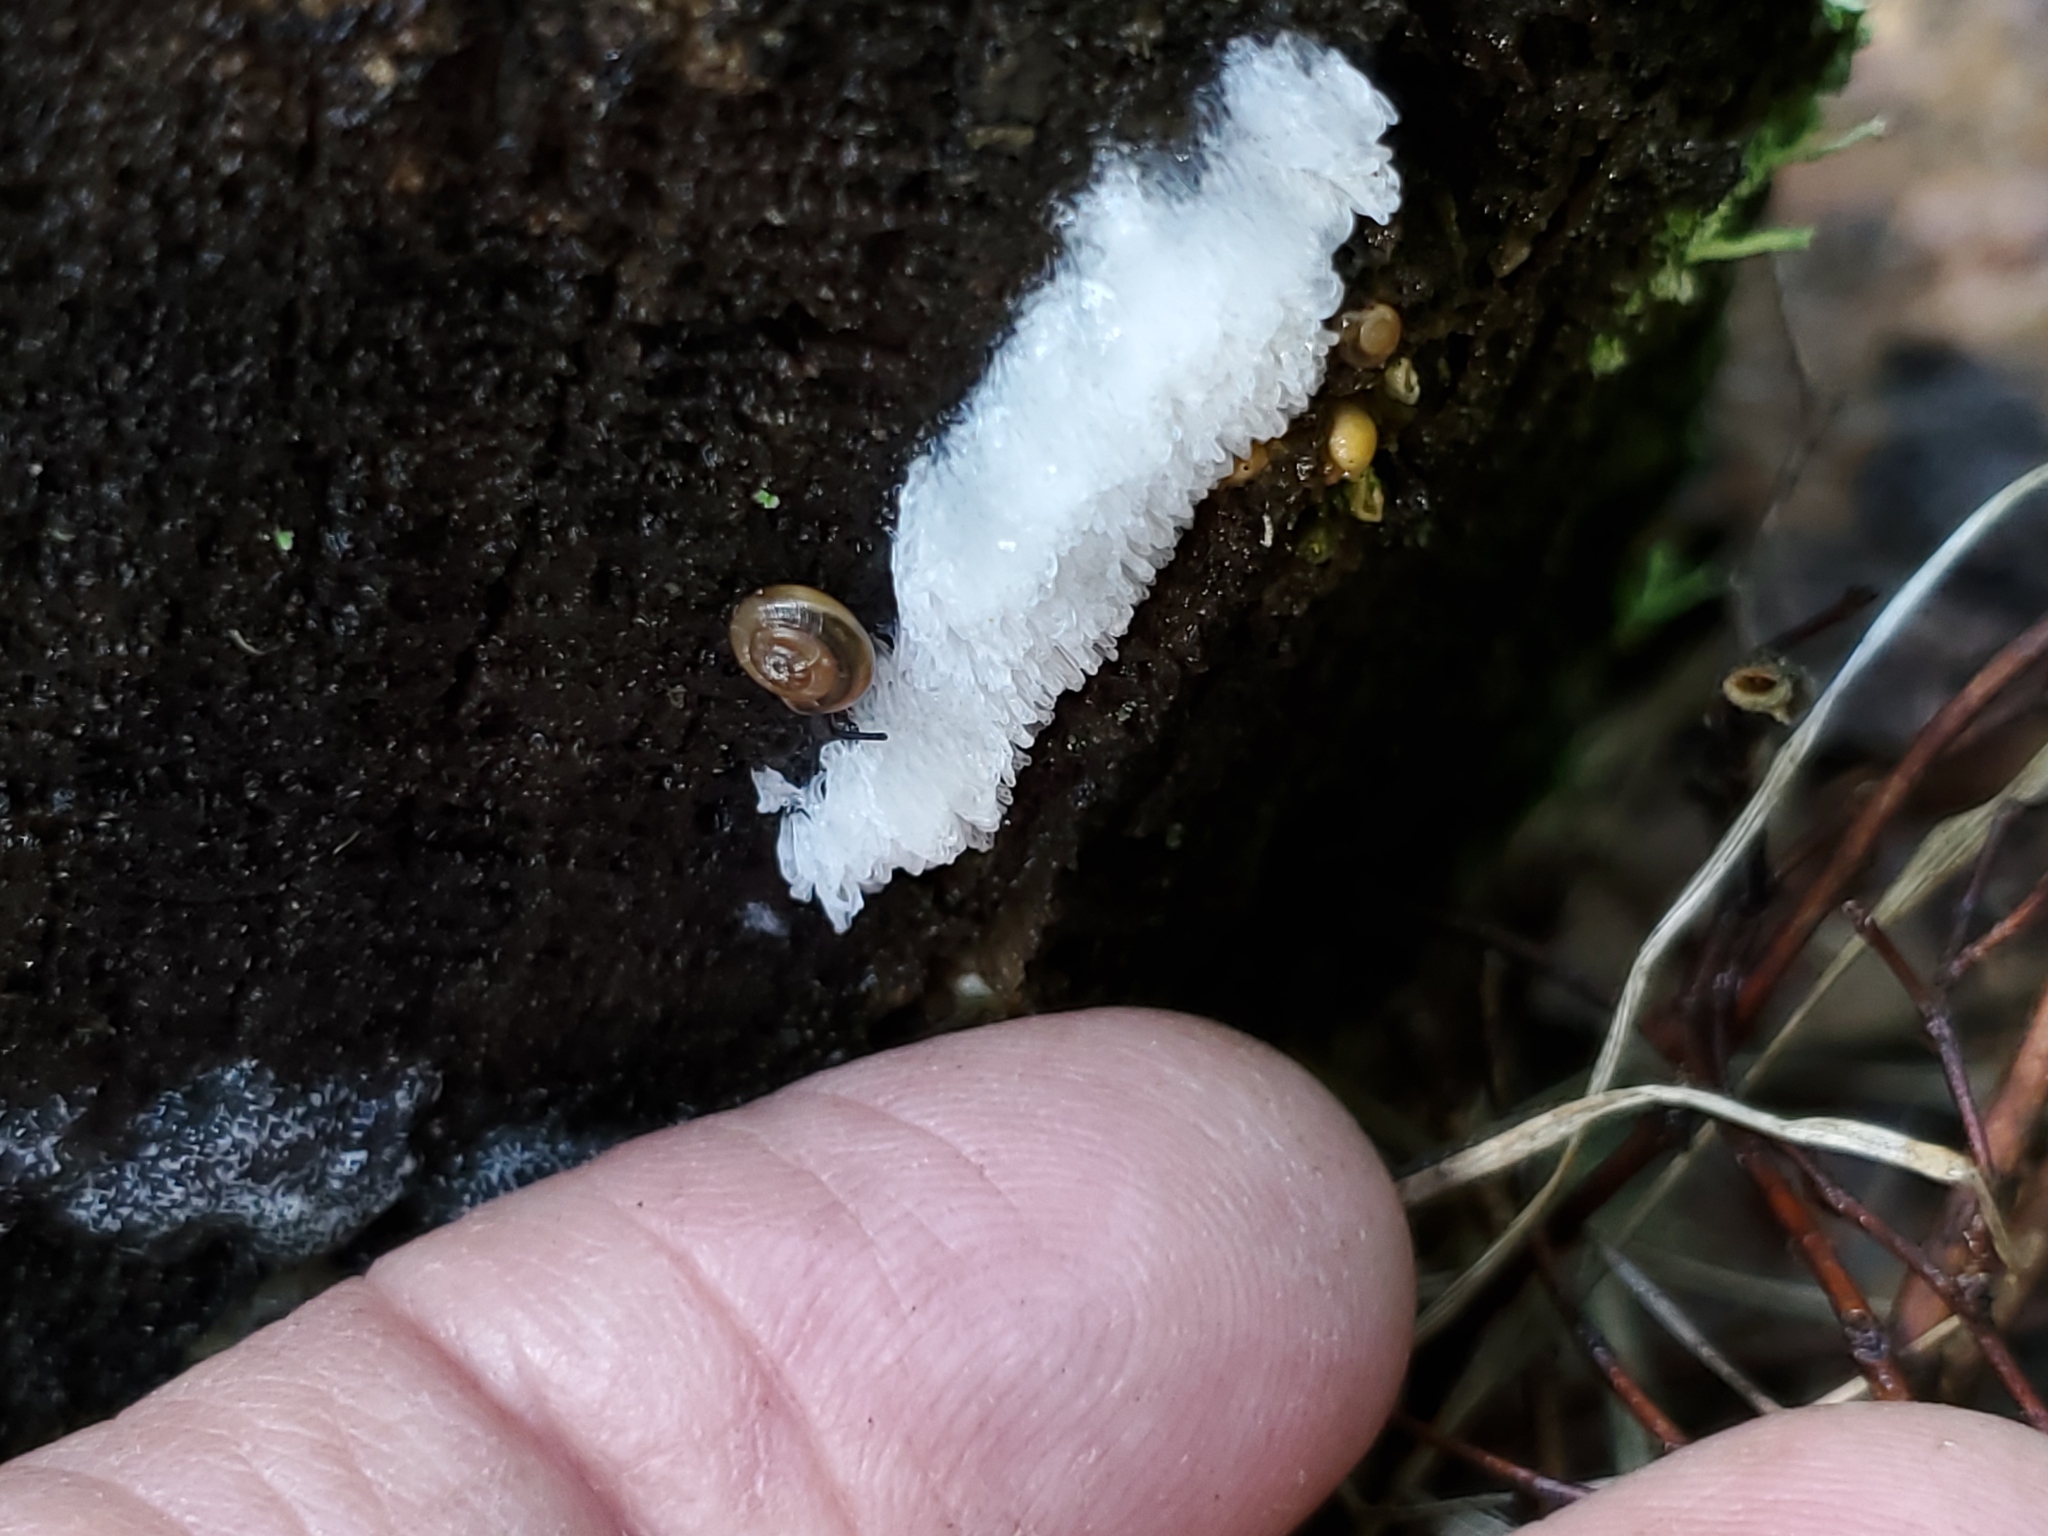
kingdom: Protozoa
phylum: Mycetozoa
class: Protosteliomycetes
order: Ceratiomyxales
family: Ceratiomyxaceae
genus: Ceratiomyxa
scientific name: Ceratiomyxa fruticulosa
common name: Honeycomb coral slime mold
